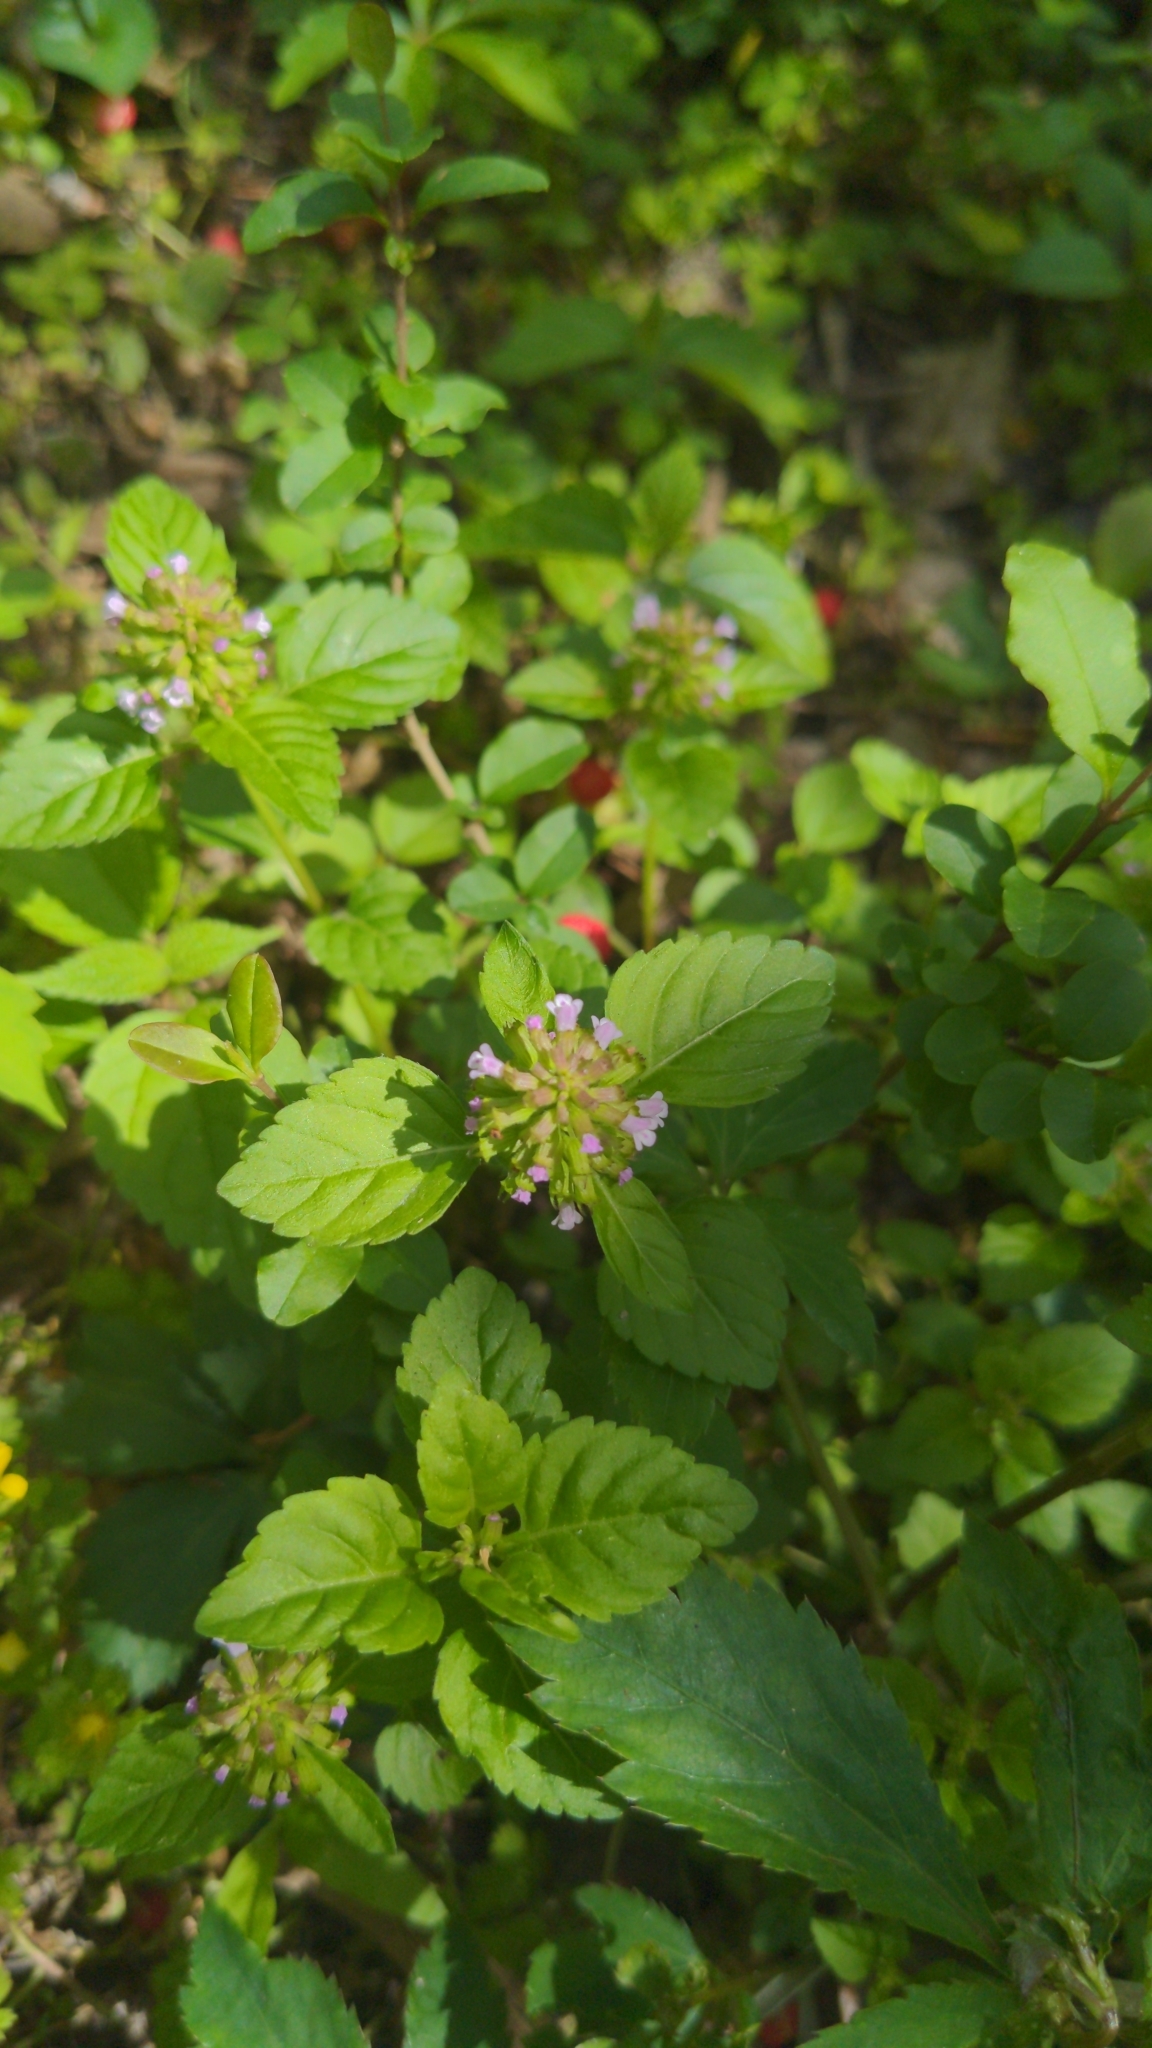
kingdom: Plantae
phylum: Tracheophyta
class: Magnoliopsida
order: Lamiales
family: Lamiaceae
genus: Clinopodium
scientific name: Clinopodium gracile
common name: Slender wild basil
